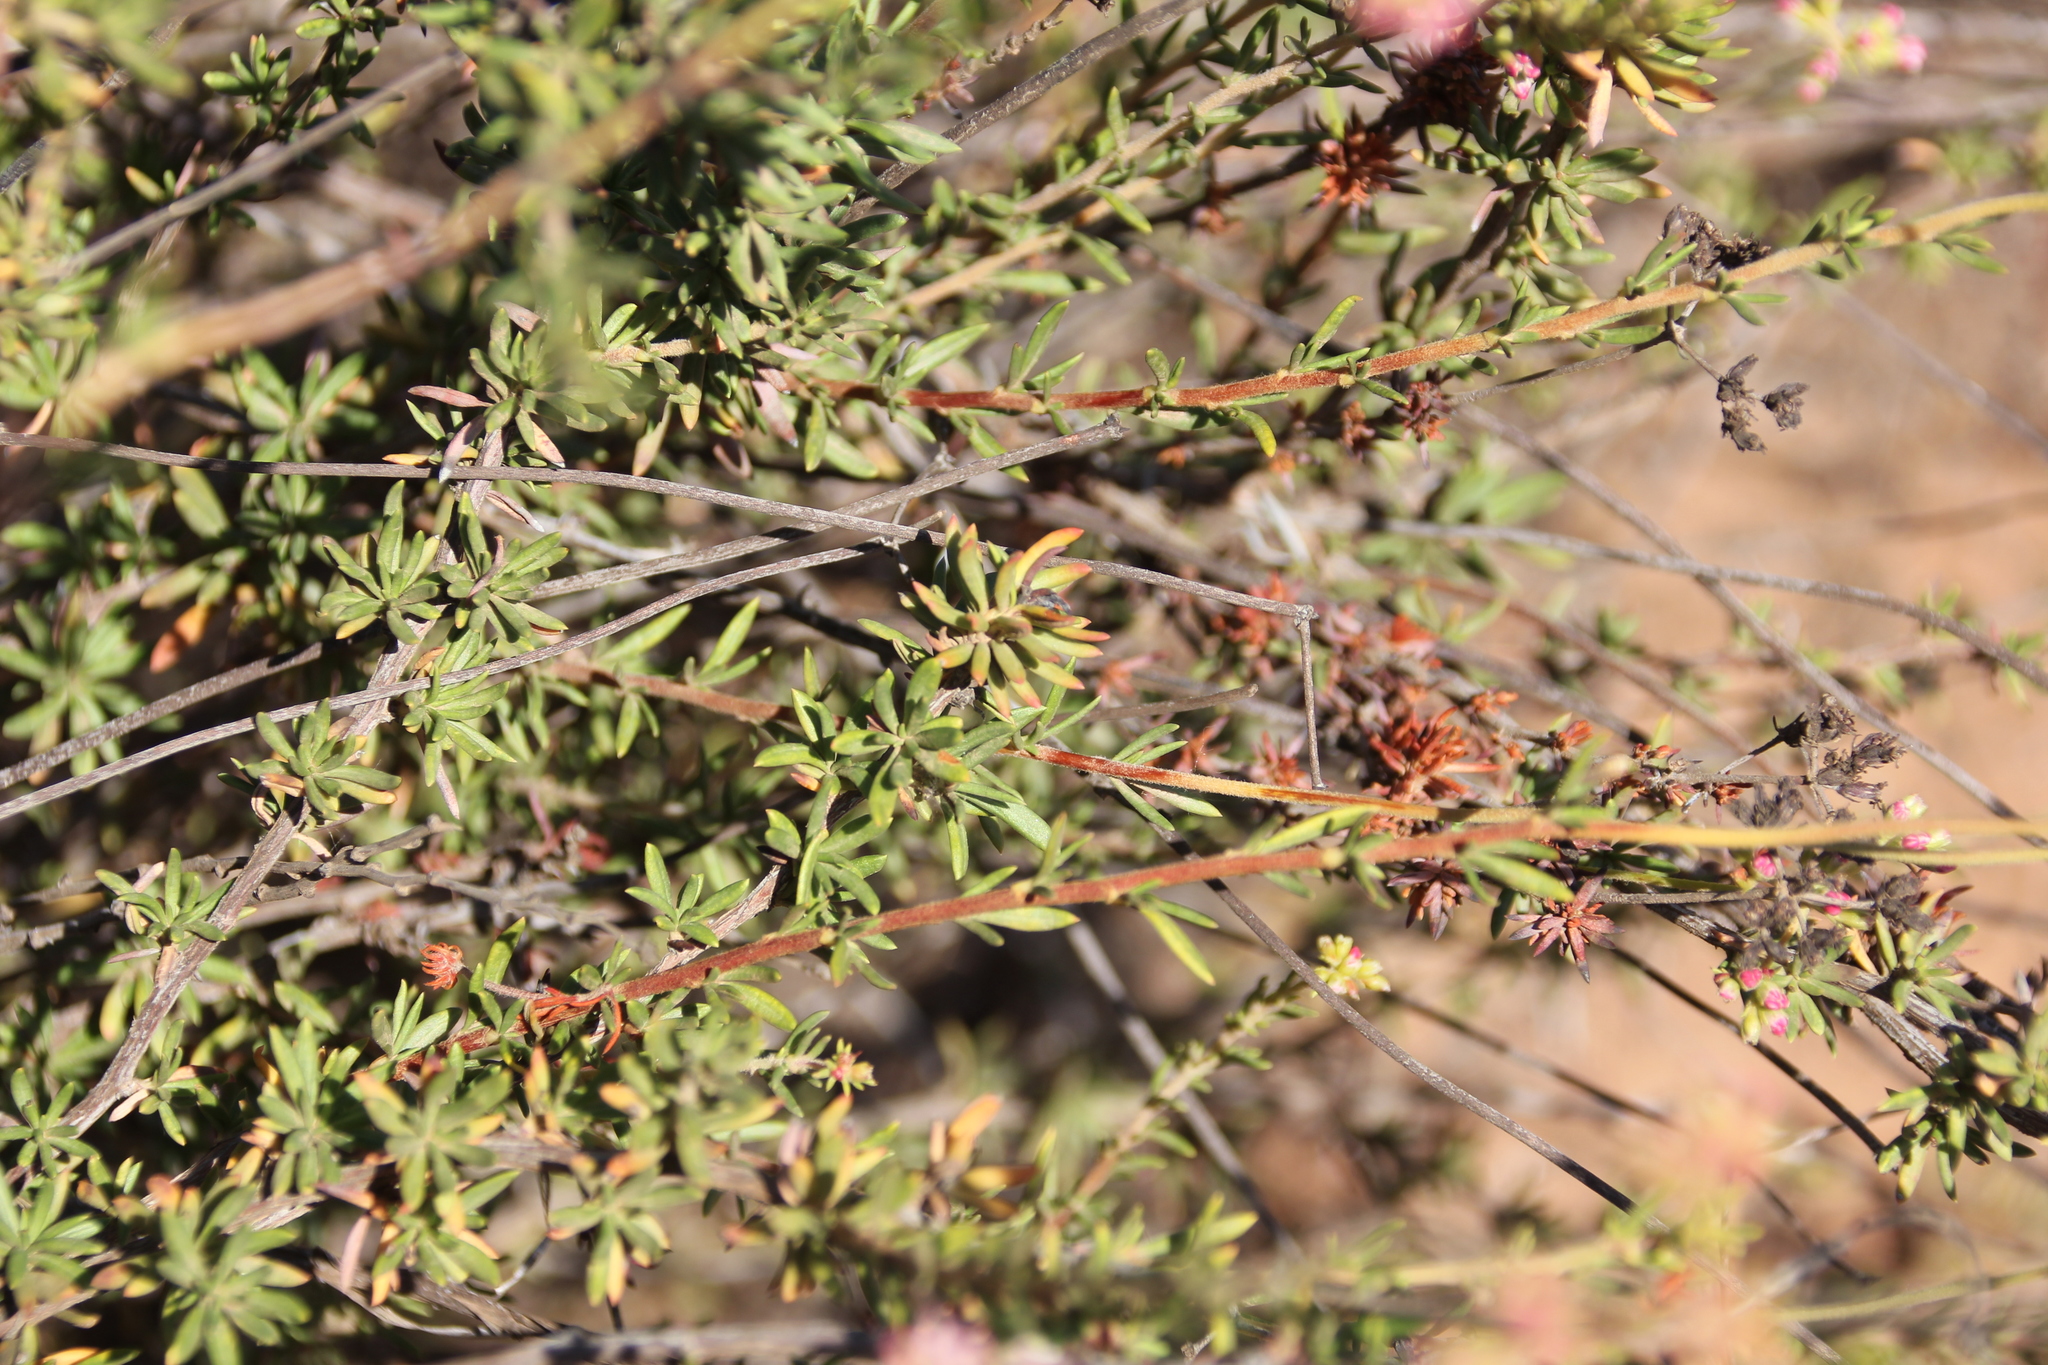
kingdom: Plantae
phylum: Tracheophyta
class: Magnoliopsida
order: Caryophyllales
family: Polygonaceae
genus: Eriogonum
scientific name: Eriogonum fasciculatum
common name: California wild buckwheat
